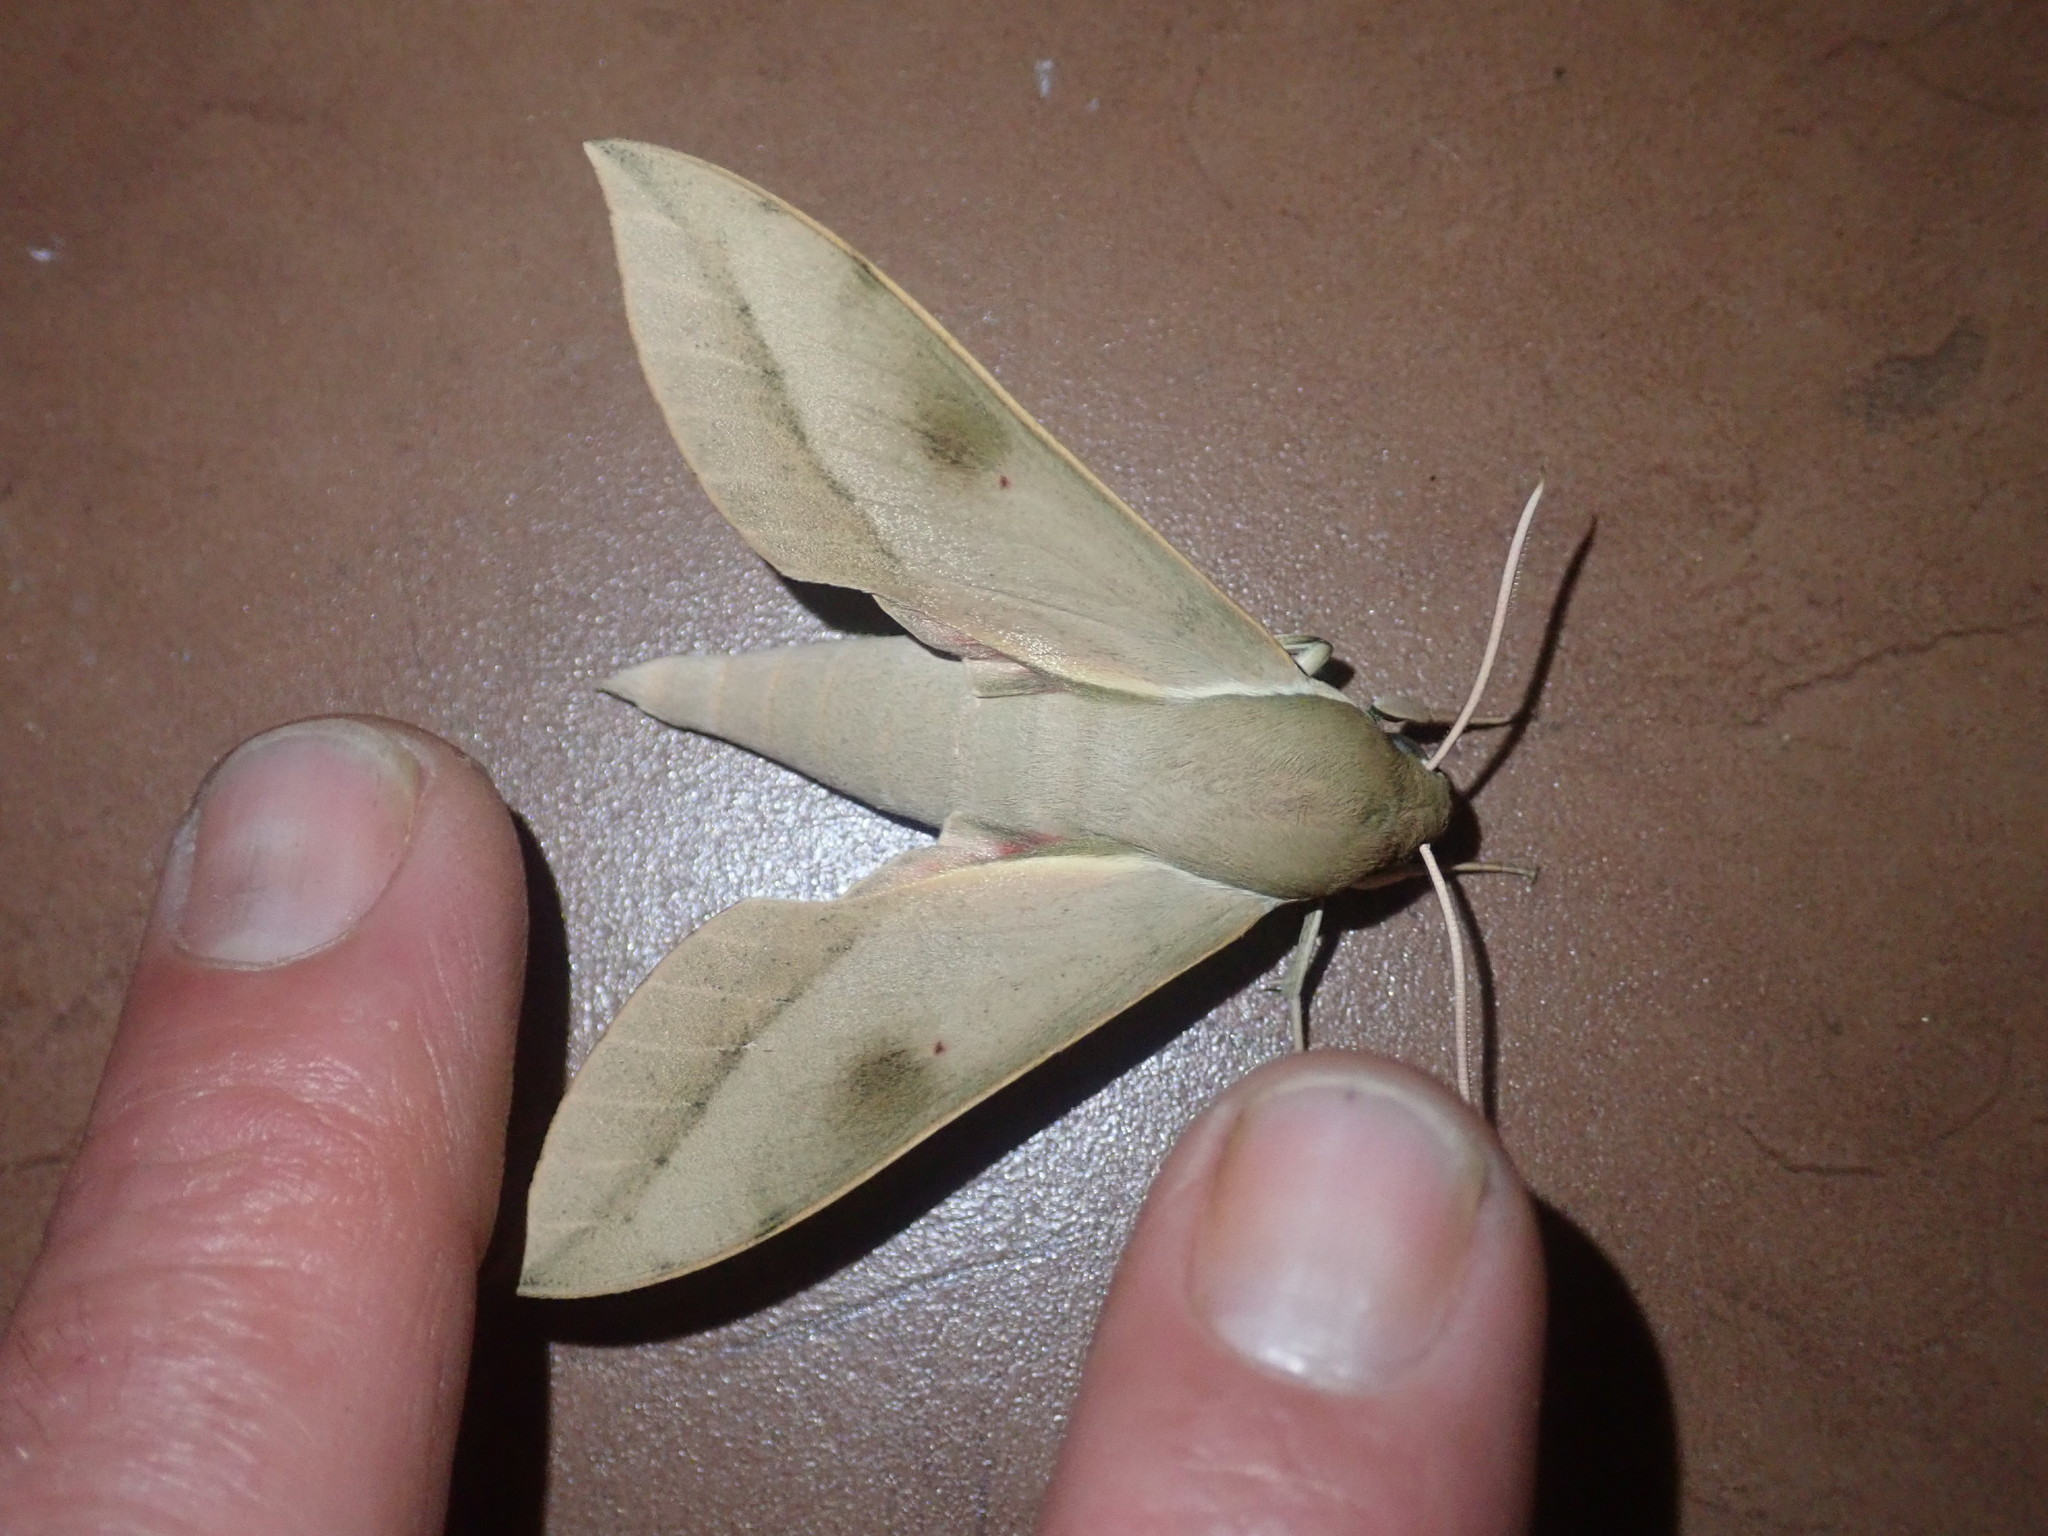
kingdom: Animalia
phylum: Arthropoda
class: Insecta
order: Lepidoptera
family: Sphingidae
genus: Theretra
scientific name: Theretra capensis
